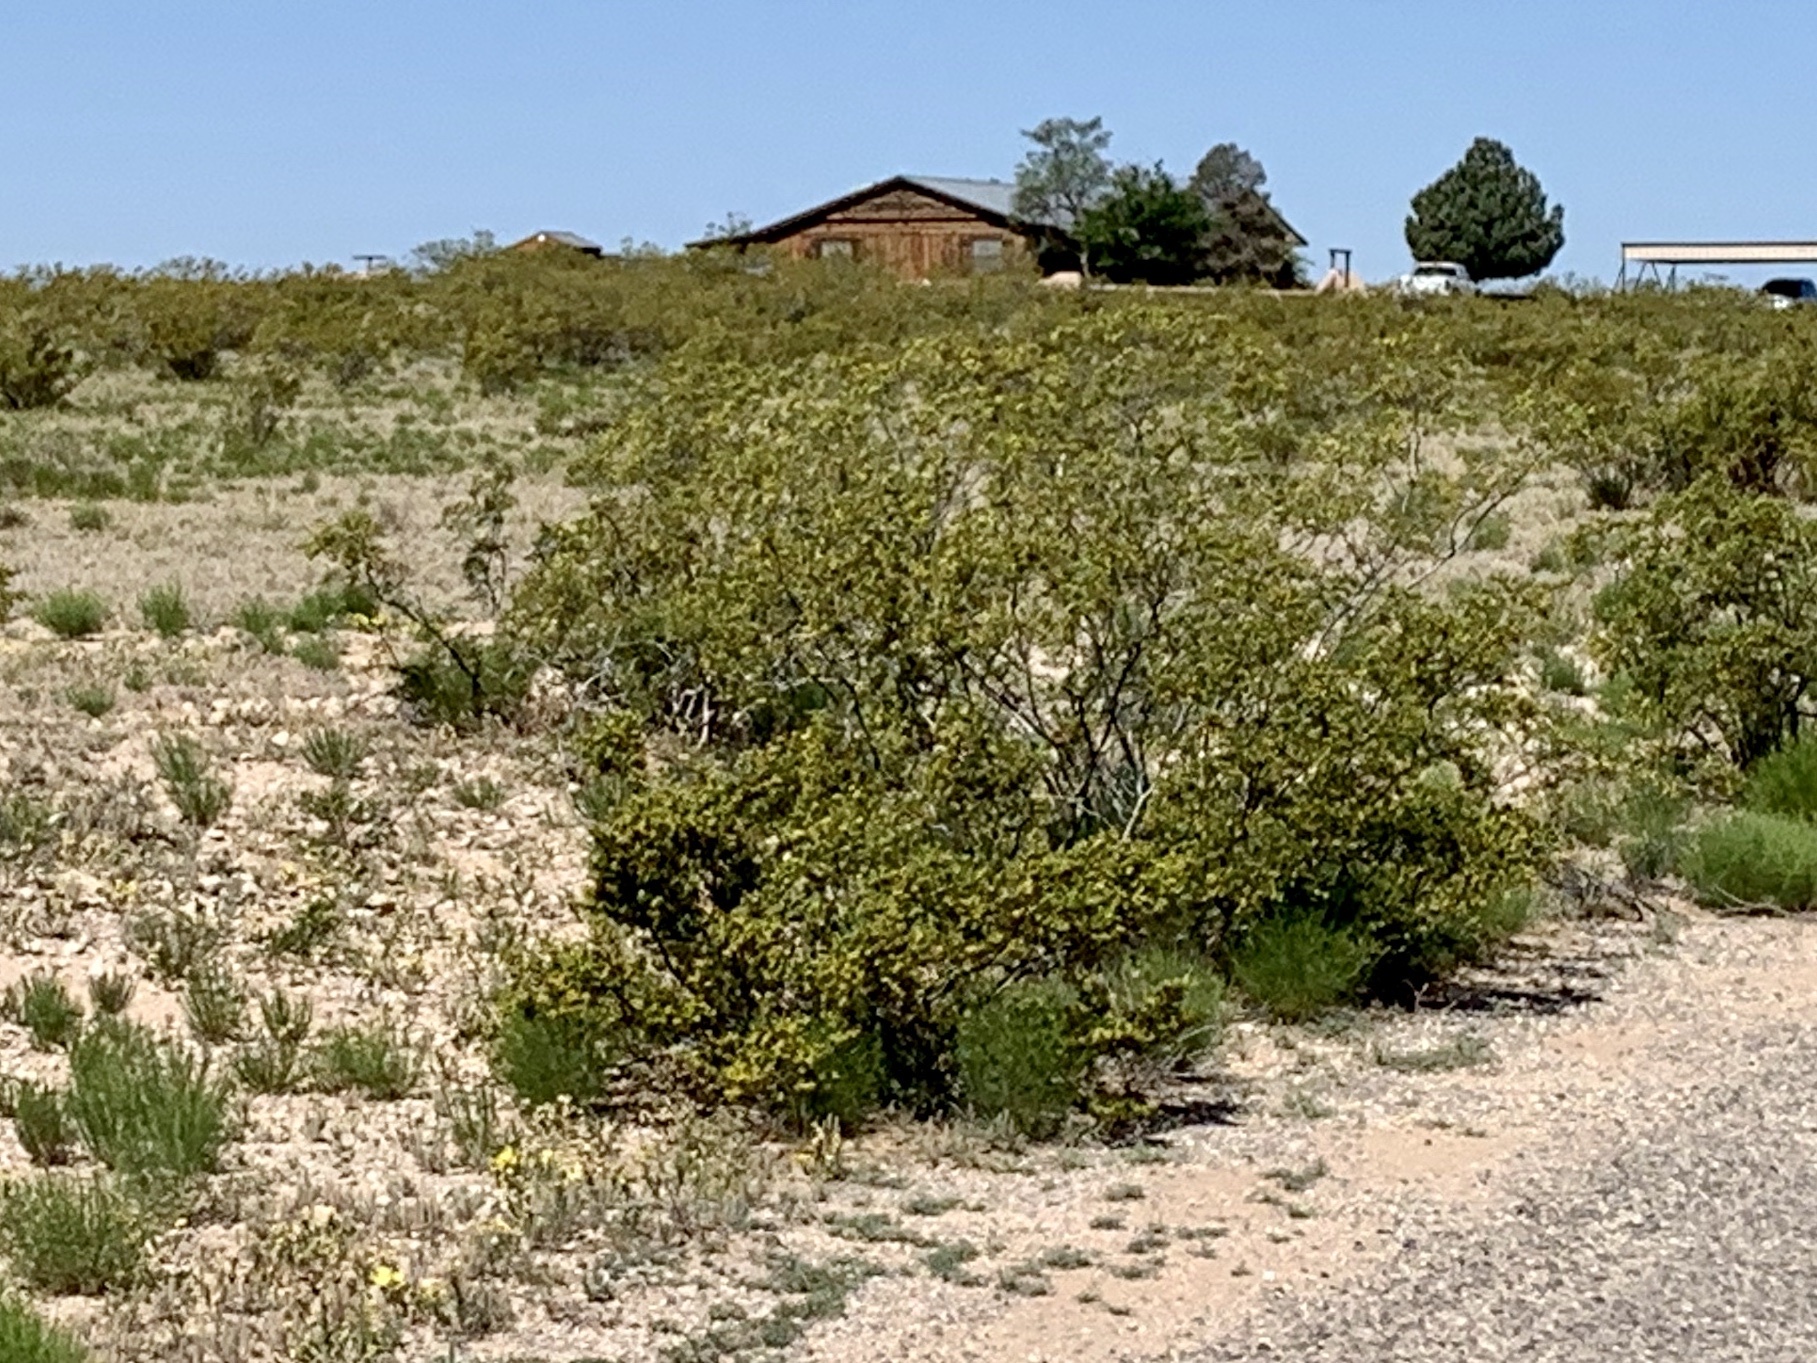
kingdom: Plantae
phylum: Tracheophyta
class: Magnoliopsida
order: Zygophyllales
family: Zygophyllaceae
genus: Larrea
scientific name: Larrea tridentata
